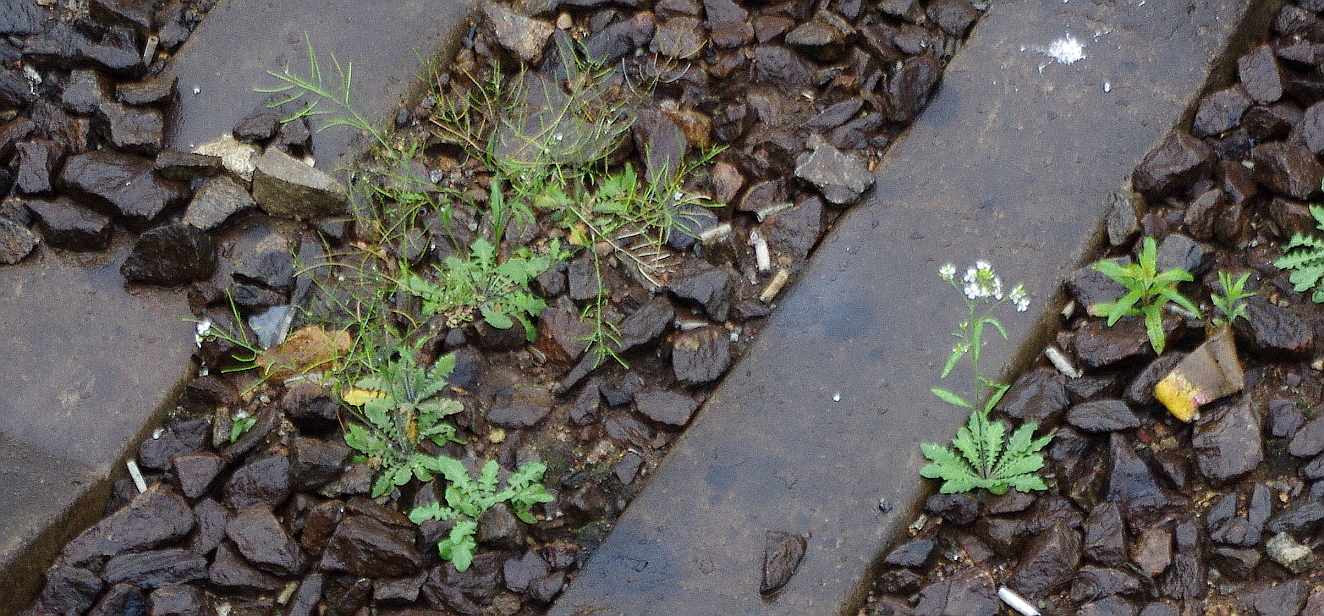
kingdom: Plantae
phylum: Tracheophyta
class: Magnoliopsida
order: Brassicales
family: Brassicaceae
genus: Arabidopsis
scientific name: Arabidopsis arenosa
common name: Sand rock-cress
